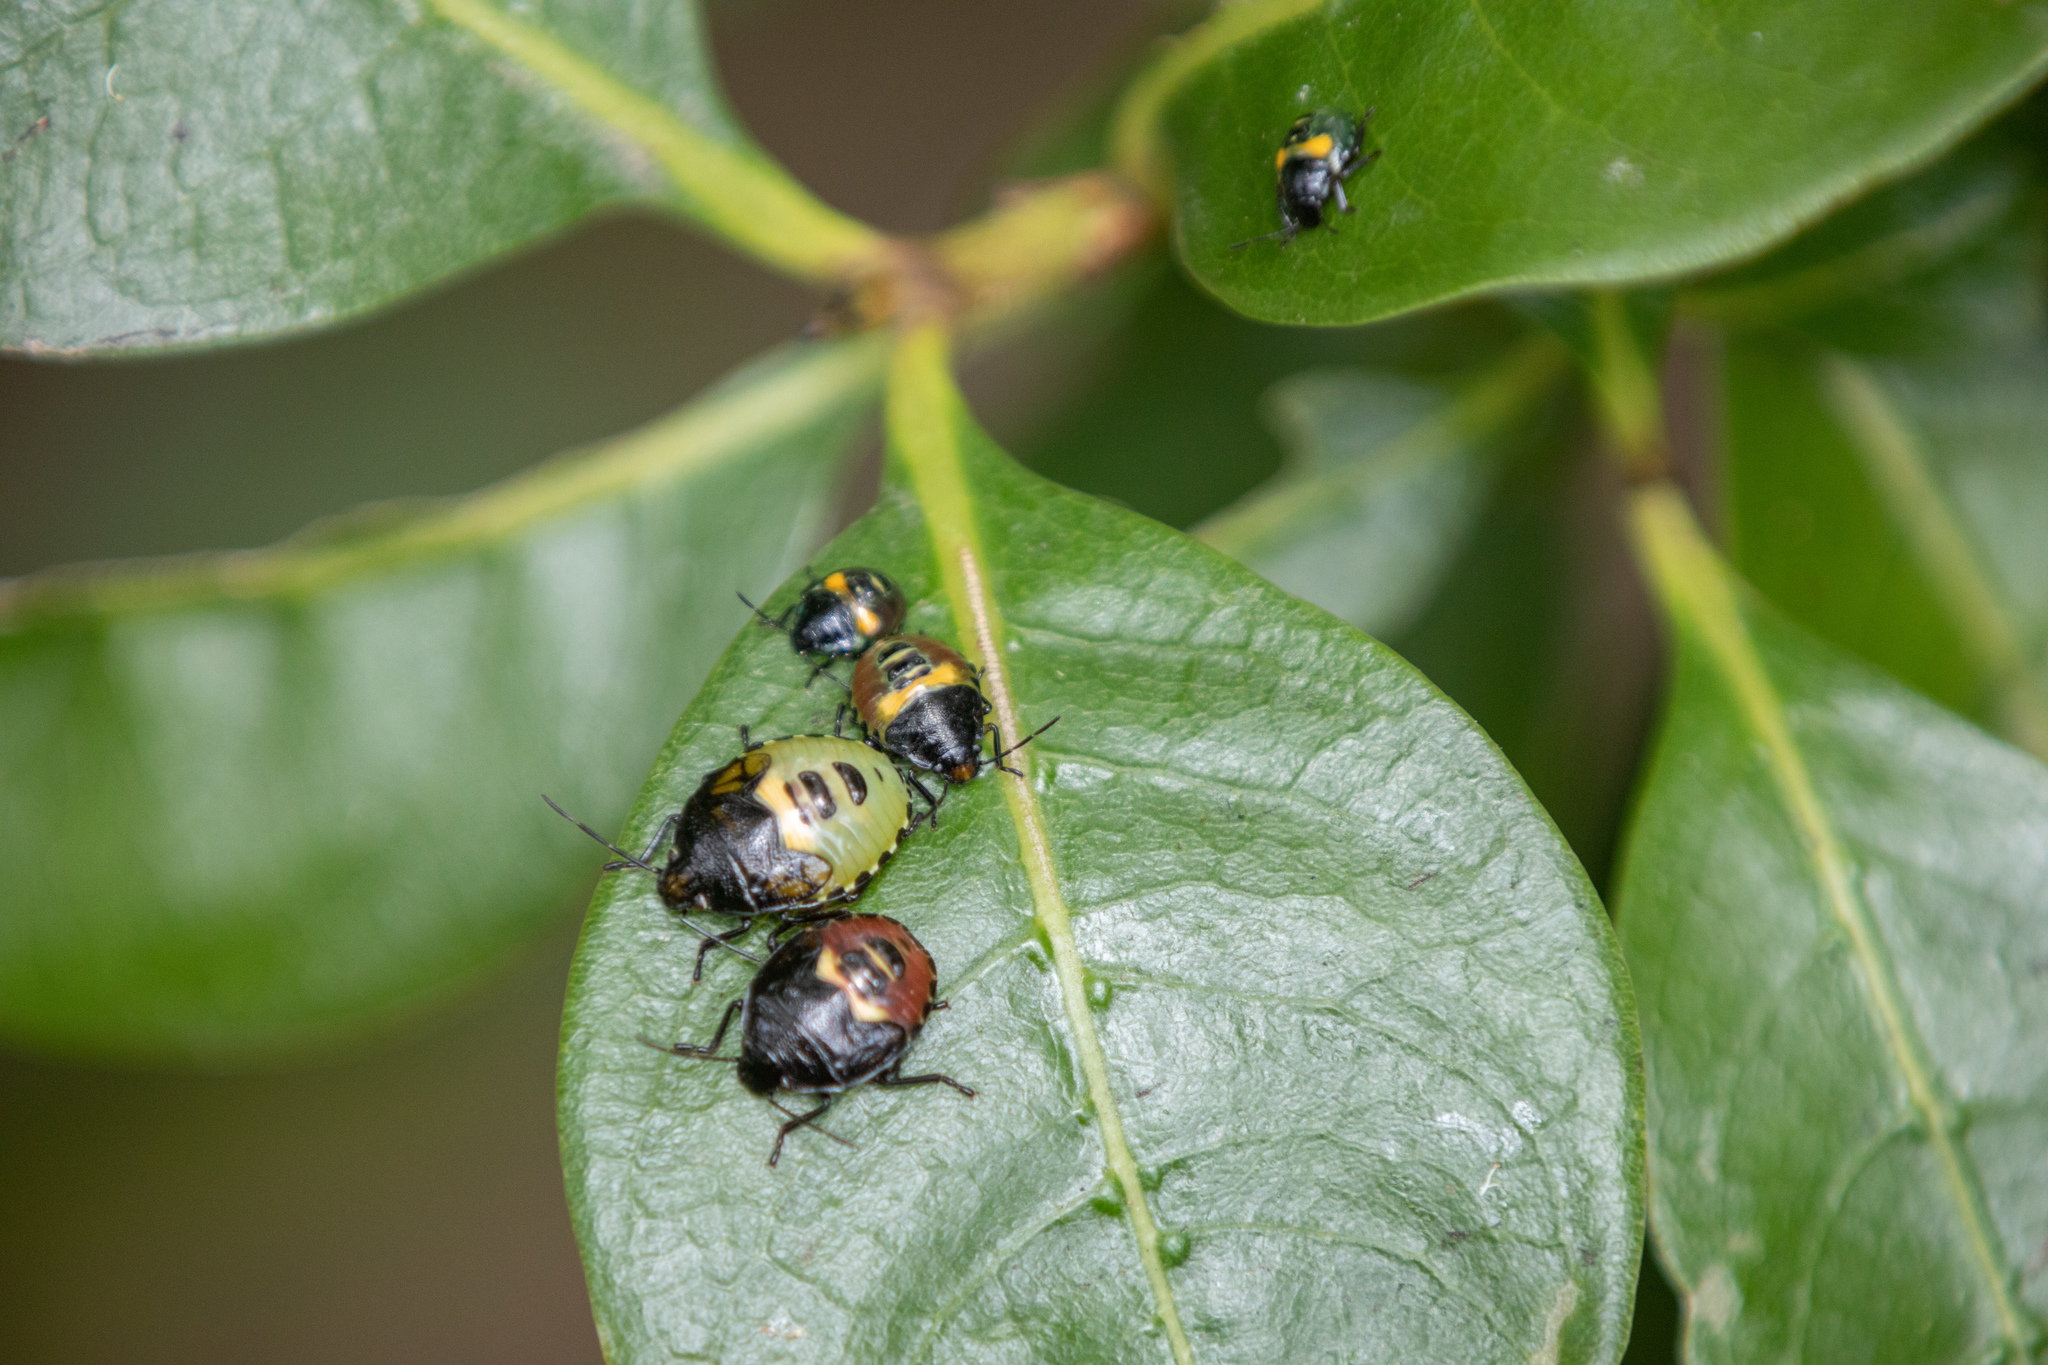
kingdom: Animalia
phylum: Arthropoda
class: Insecta
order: Hemiptera
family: Pentatomidae
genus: Glaucias
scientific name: Glaucias amyota
